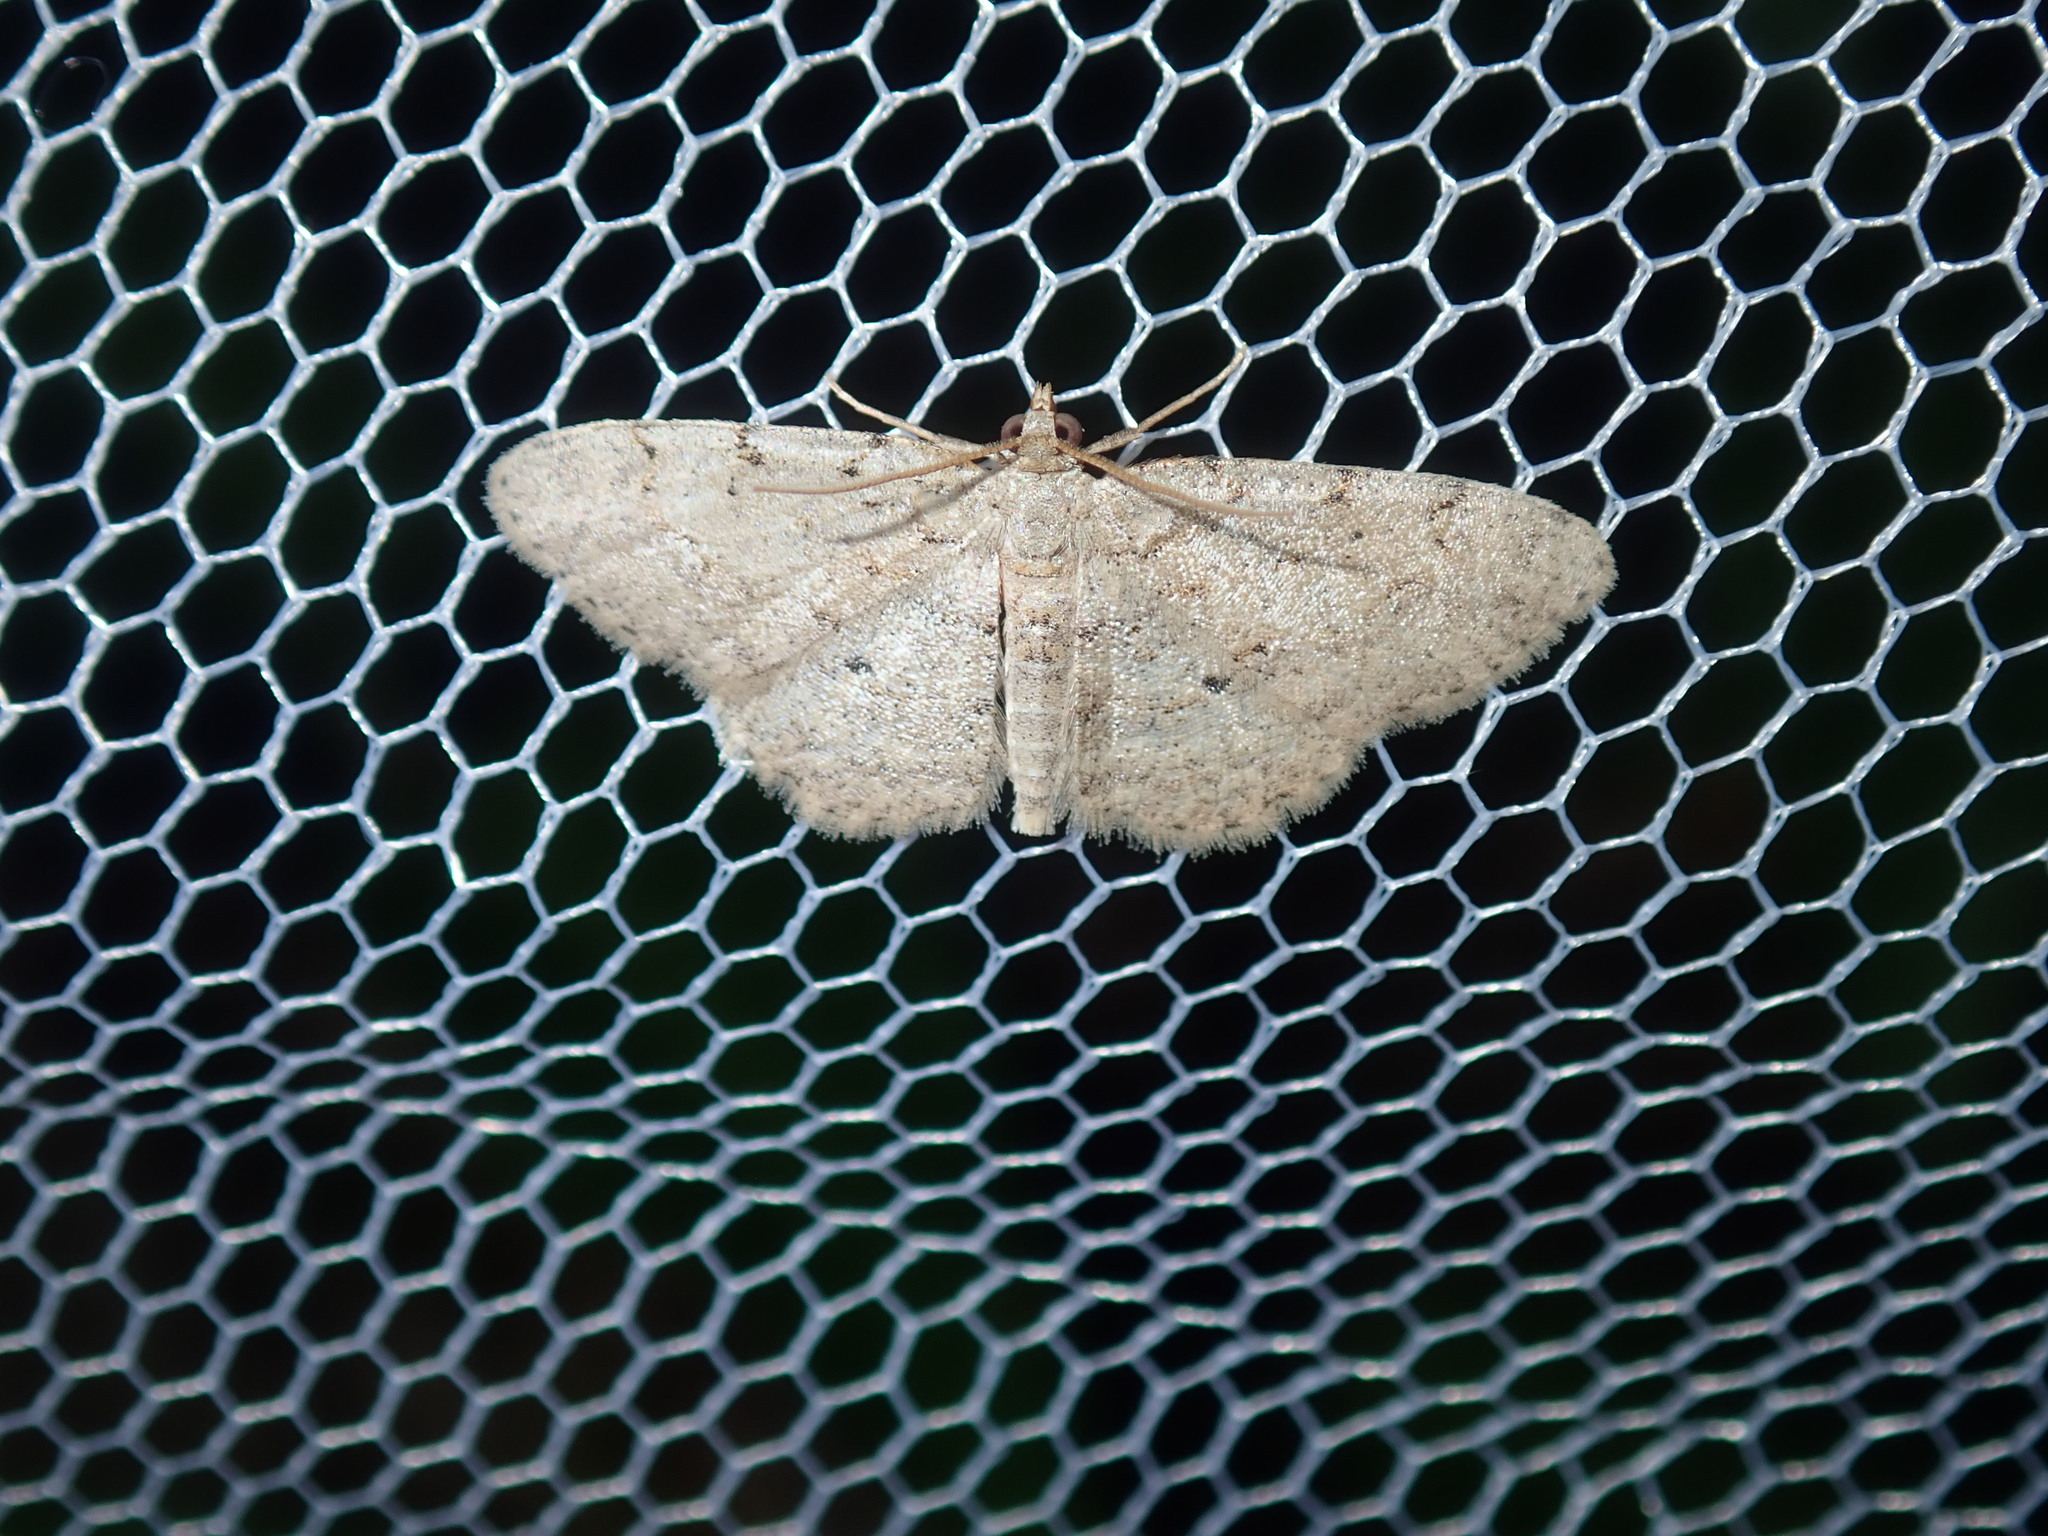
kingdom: Animalia
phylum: Arthropoda
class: Insecta
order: Lepidoptera
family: Geometridae
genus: Ectropis
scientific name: Ectropis argalea
